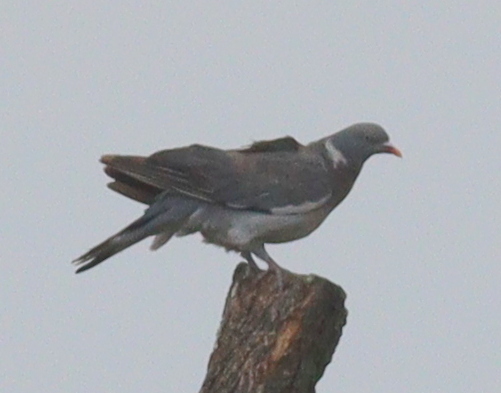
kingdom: Animalia
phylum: Chordata
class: Aves
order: Columbiformes
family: Columbidae
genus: Columba
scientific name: Columba palumbus
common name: Common wood pigeon
